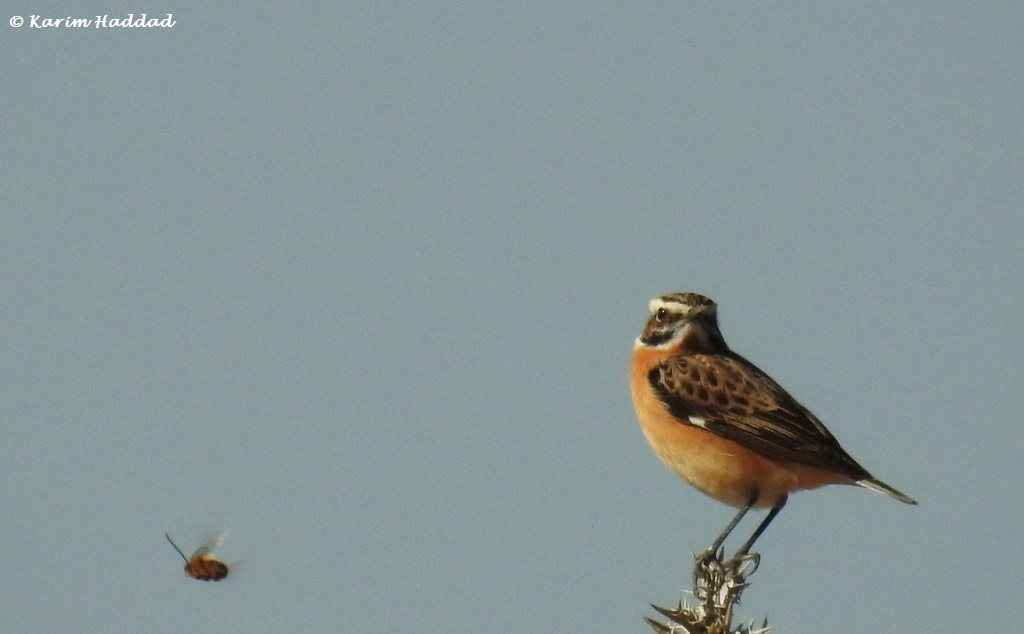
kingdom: Animalia
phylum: Chordata
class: Aves
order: Passeriformes
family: Muscicapidae
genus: Saxicola
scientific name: Saxicola rubetra
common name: Whinchat
